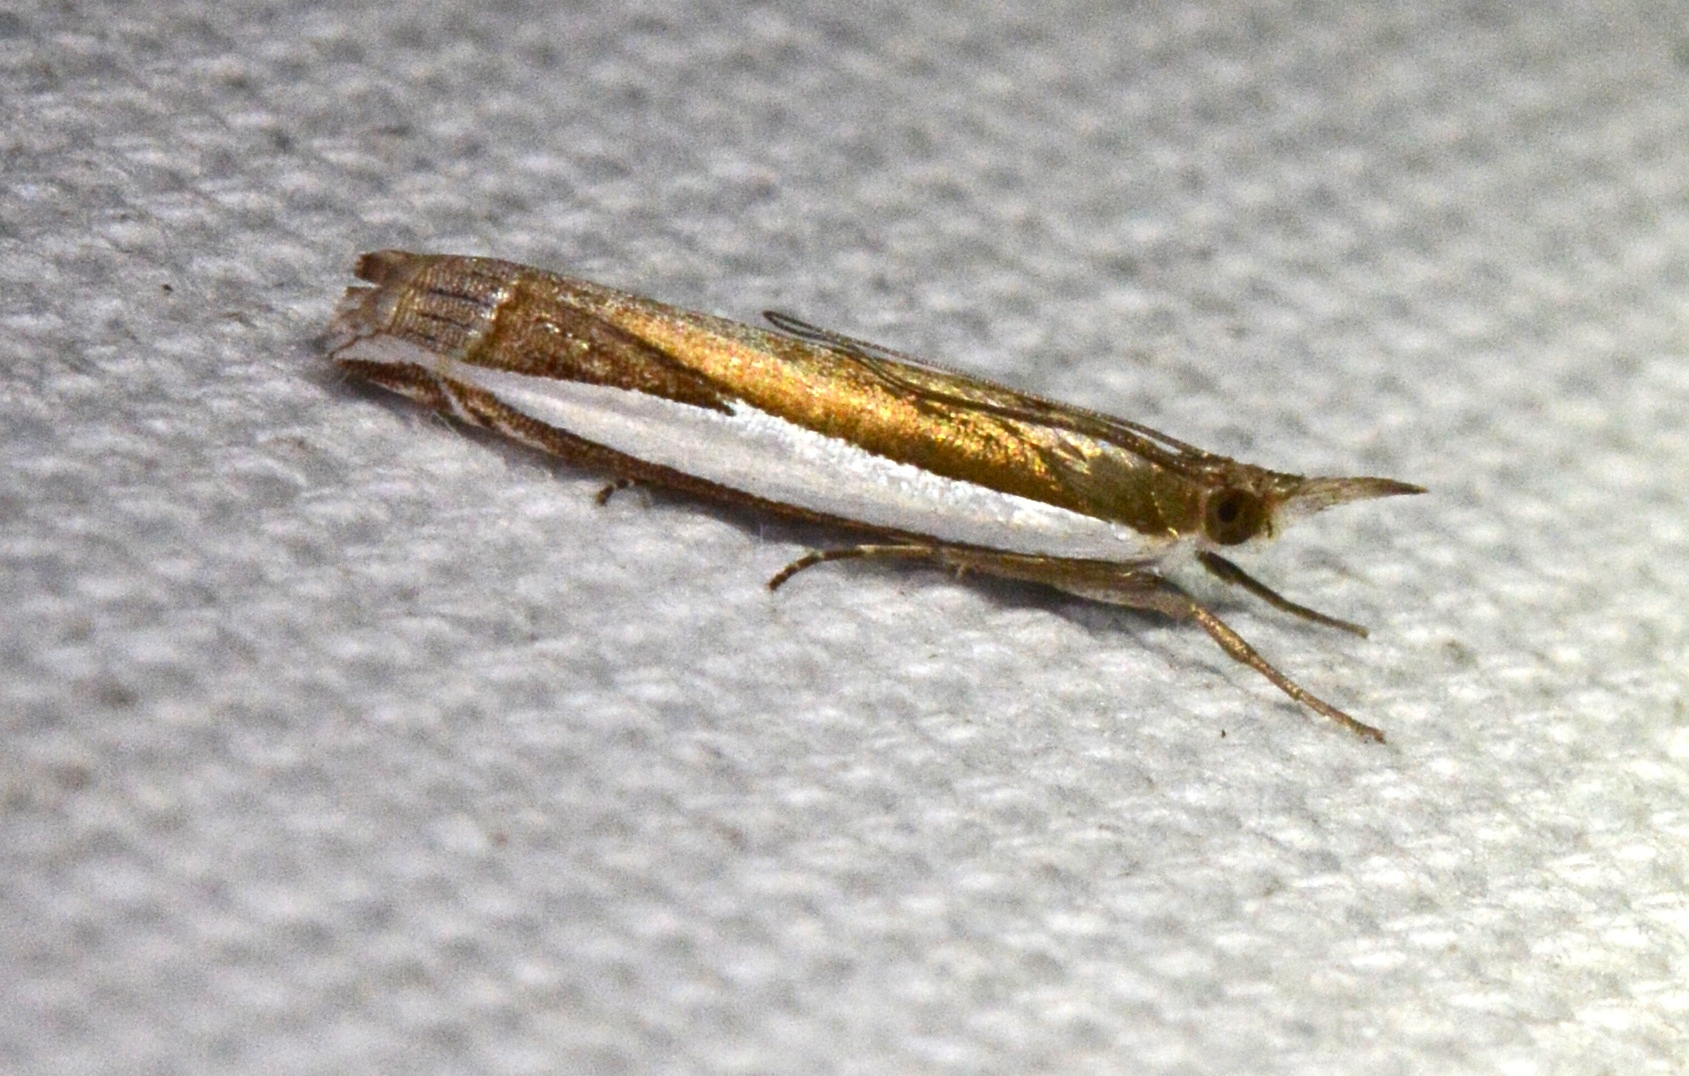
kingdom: Animalia
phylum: Arthropoda
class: Insecta
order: Lepidoptera
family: Crambidae
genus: Crambus
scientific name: Crambus quinquareatus
